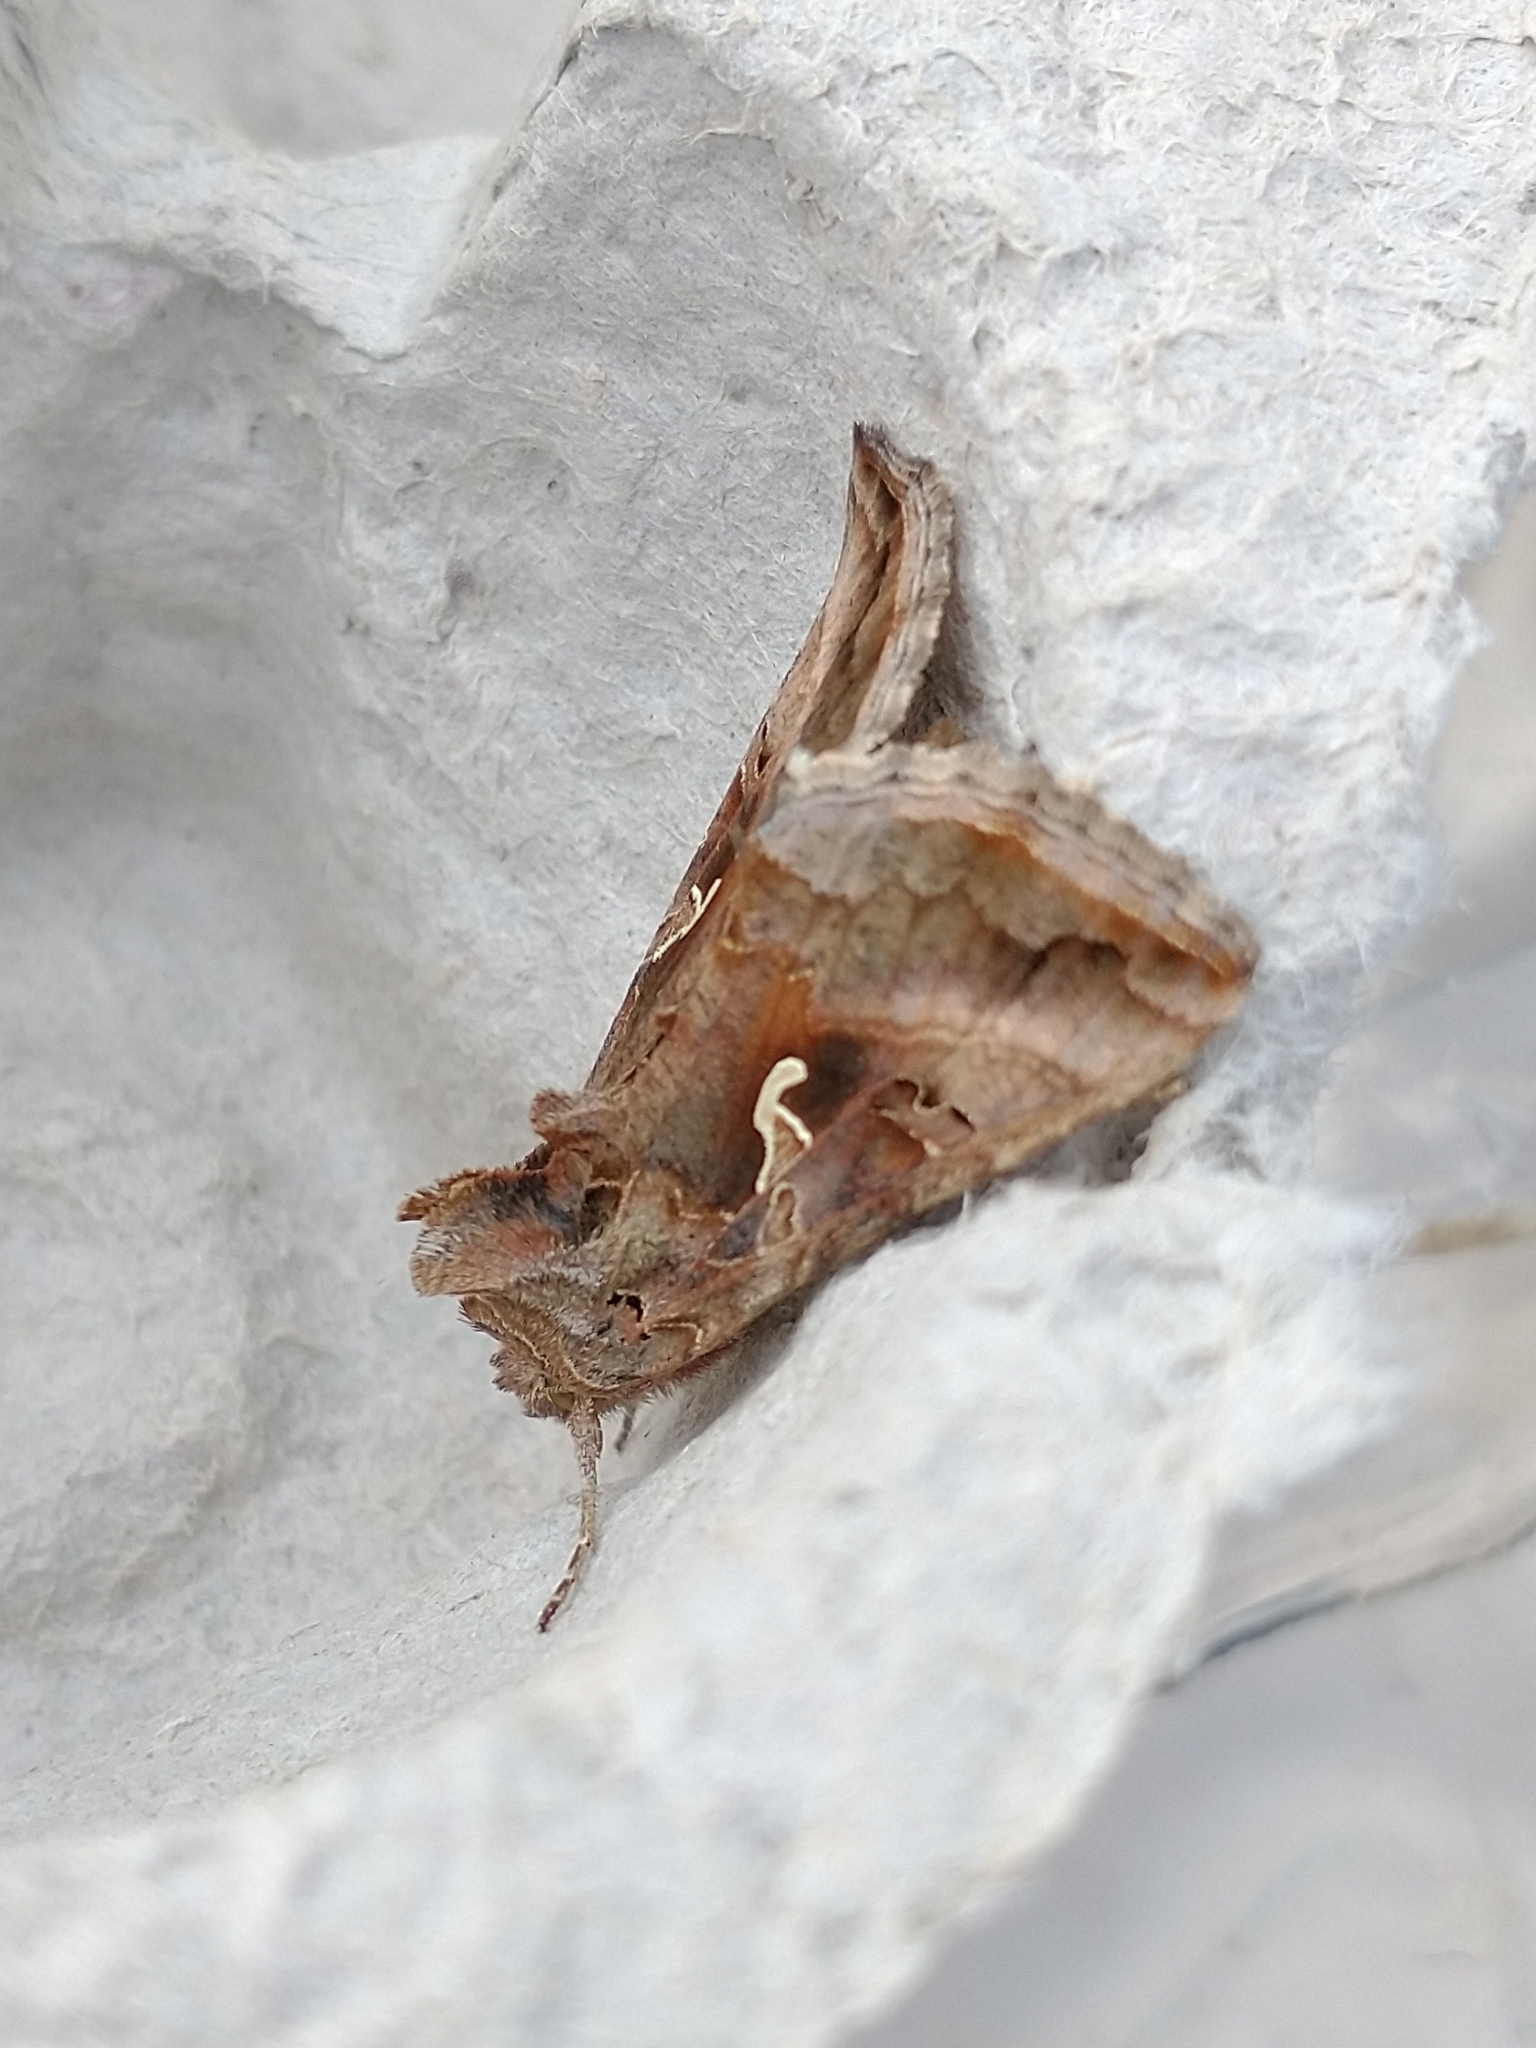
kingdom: Animalia
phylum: Arthropoda
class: Insecta
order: Lepidoptera
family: Noctuidae
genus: Autographa
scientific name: Autographa gamma
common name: Silver y
